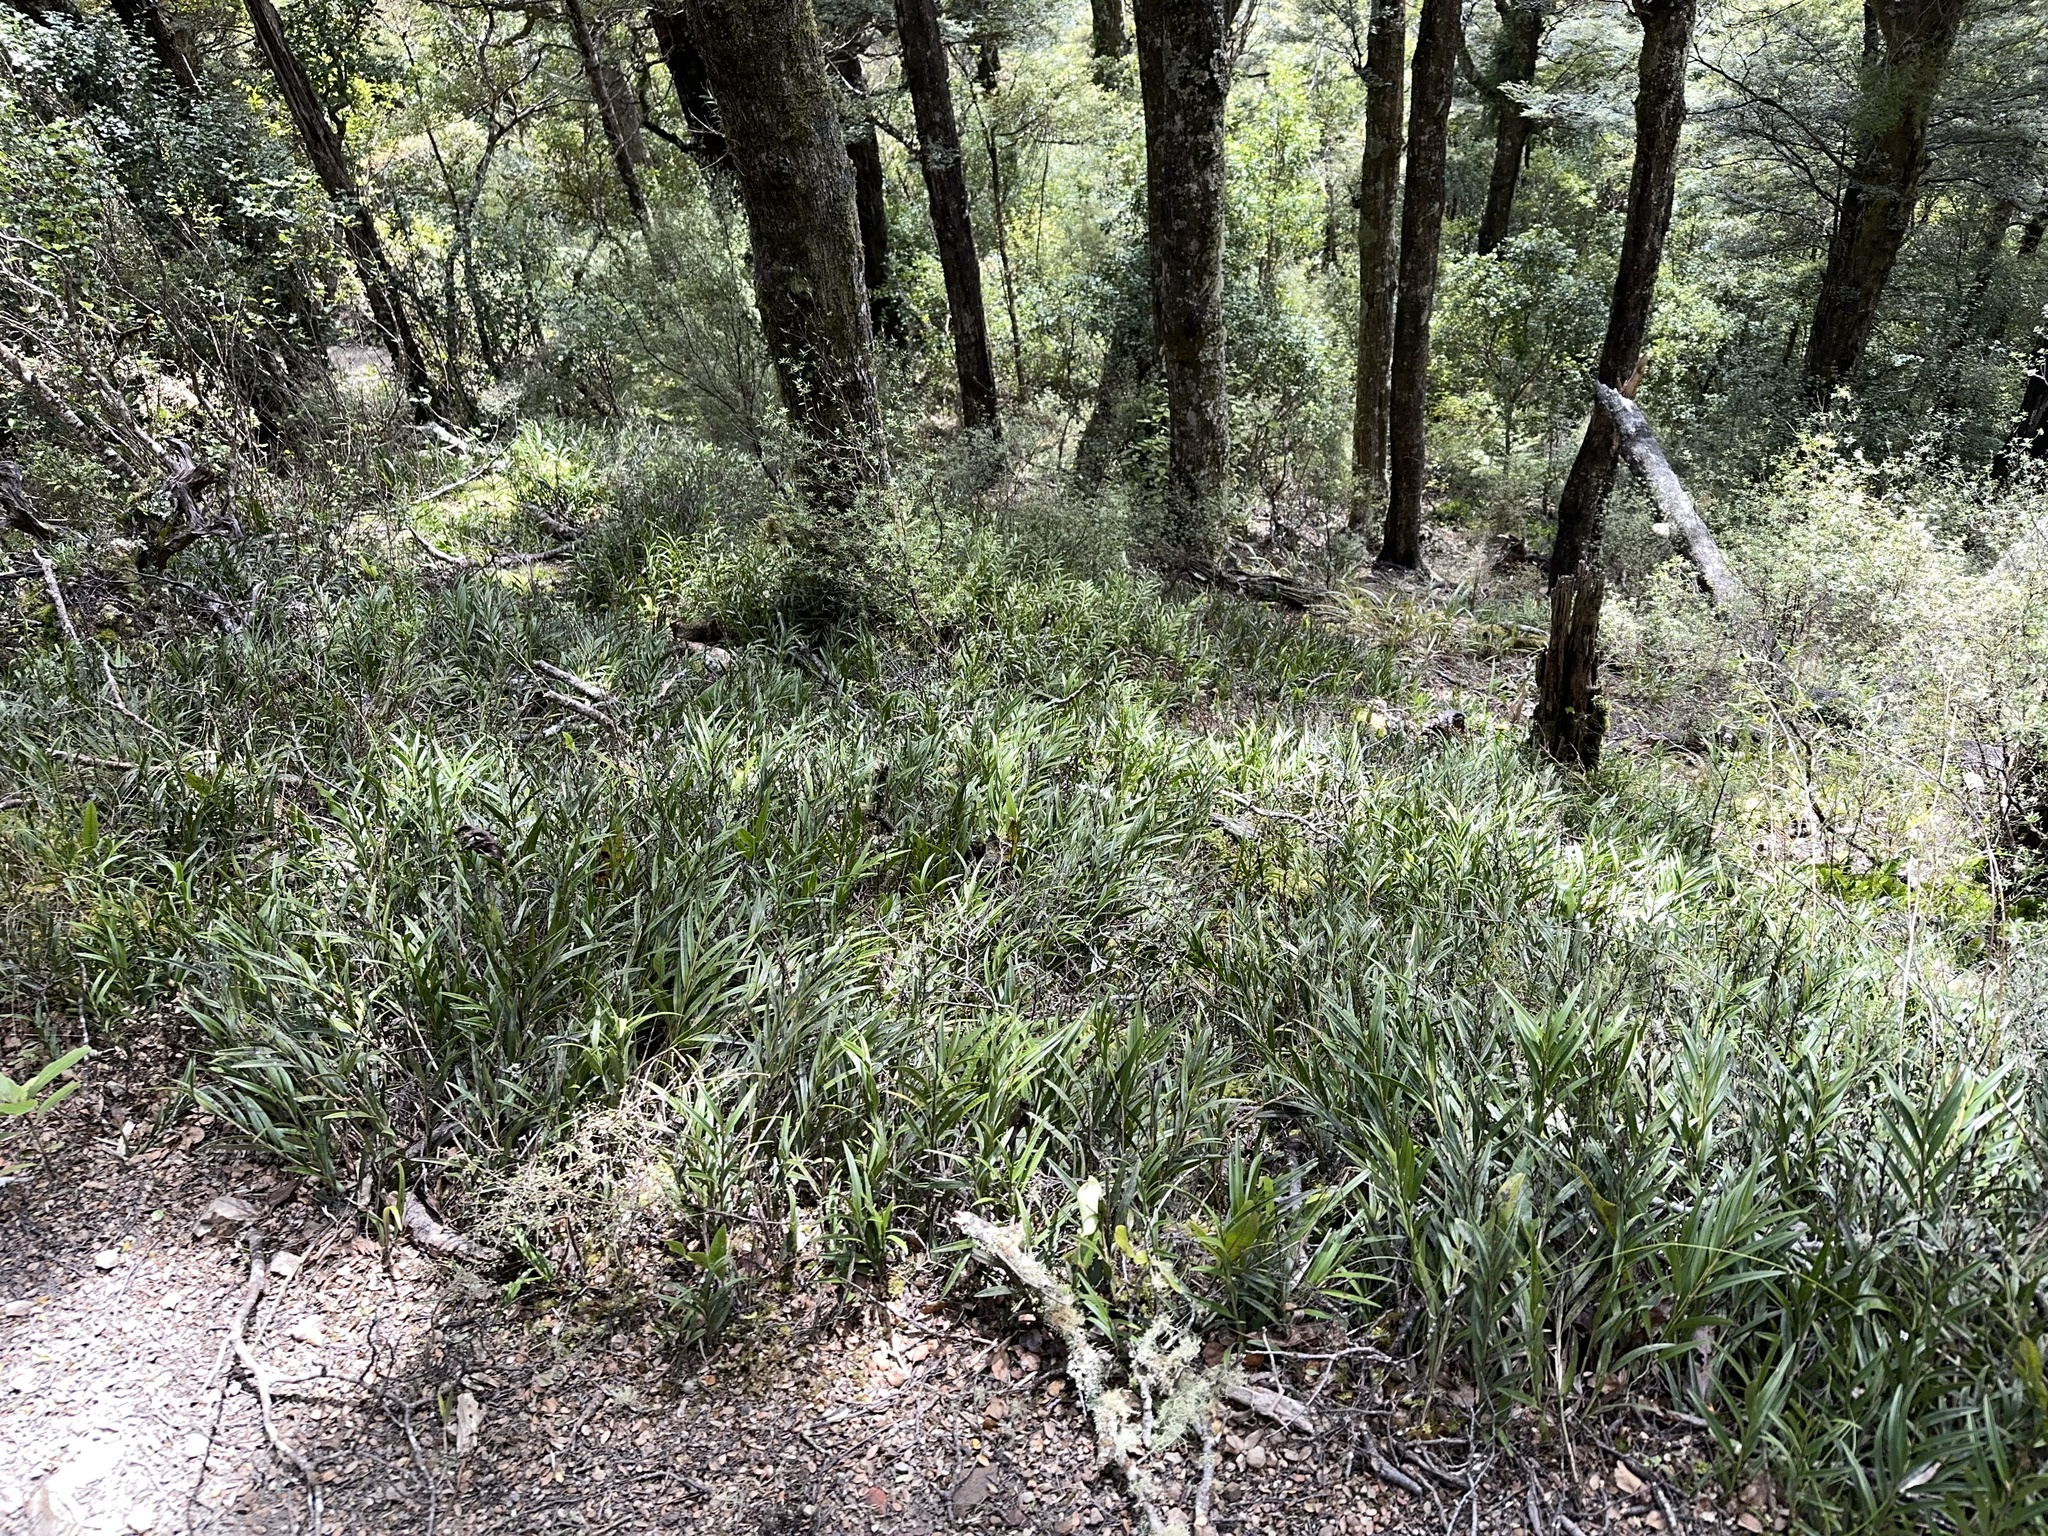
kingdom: Plantae
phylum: Tracheophyta
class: Liliopsida
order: Asparagales
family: Orchidaceae
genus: Earina
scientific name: Earina autumnalis
